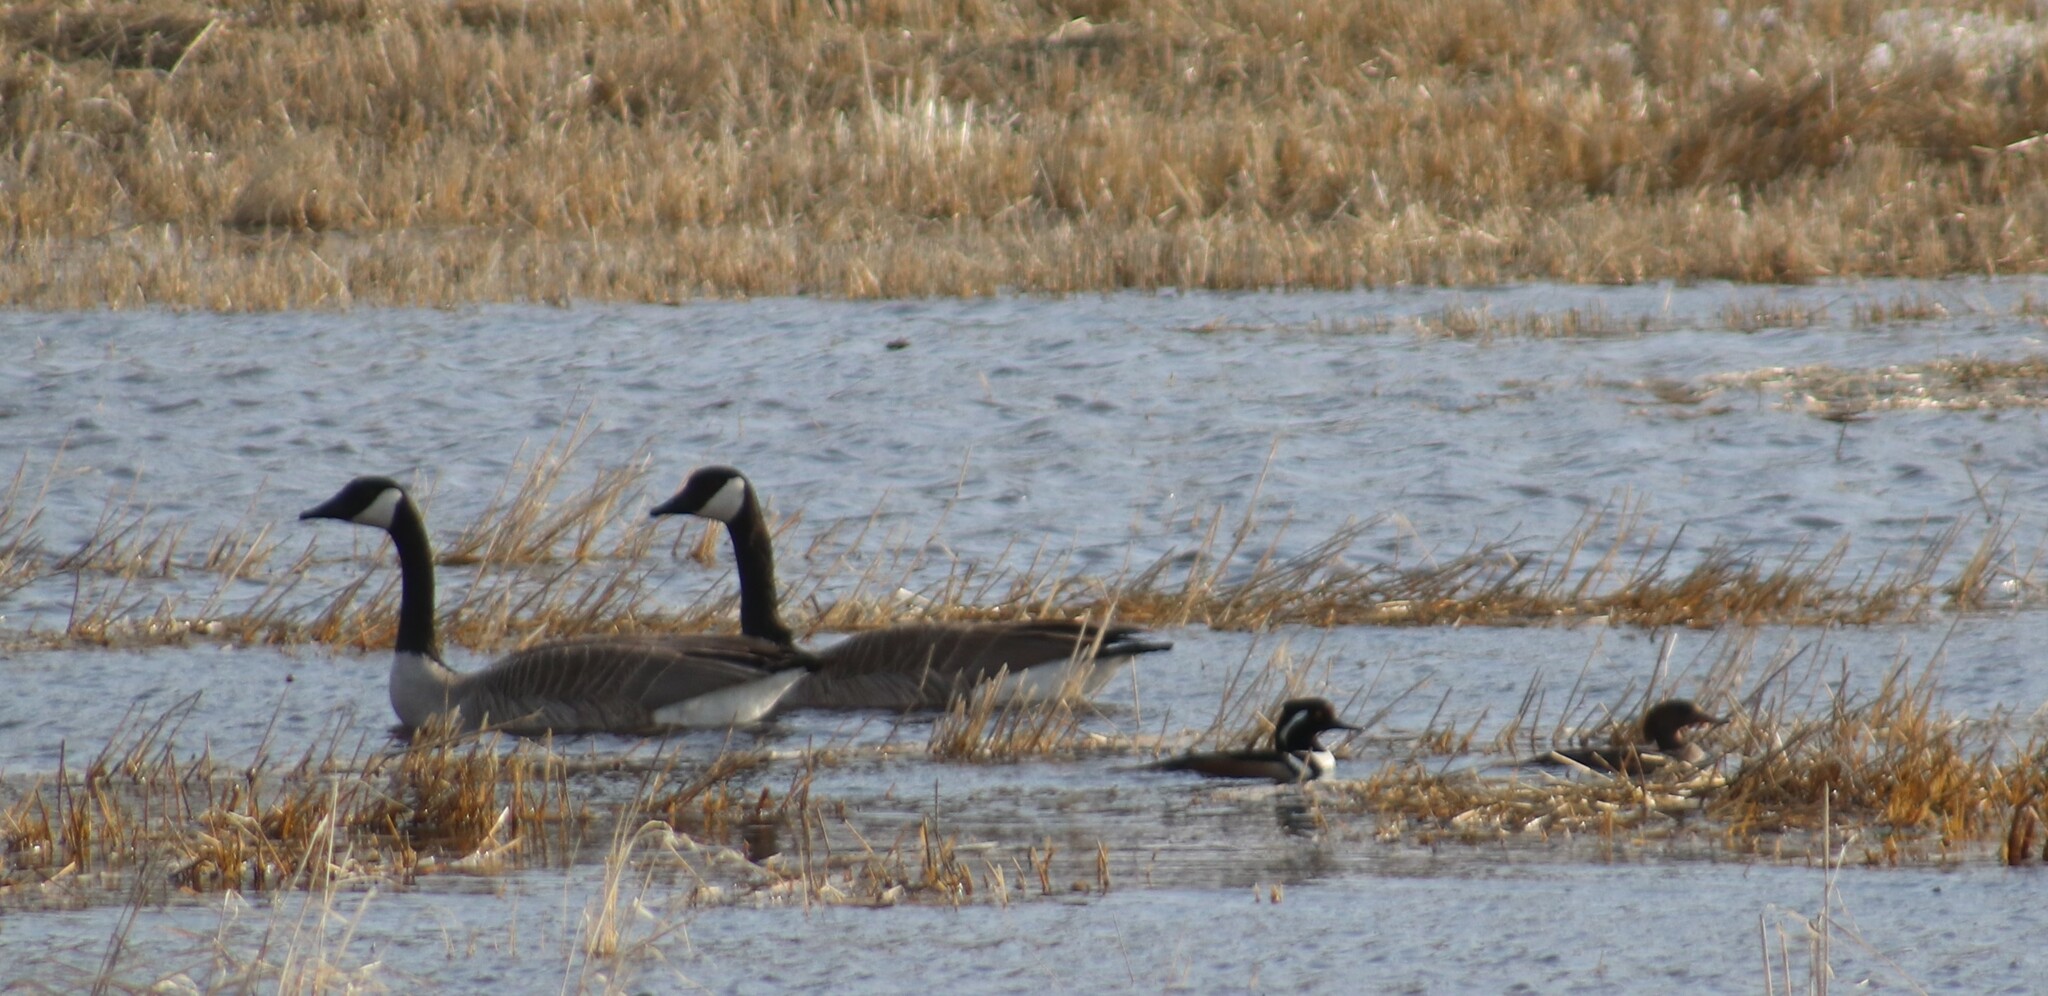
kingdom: Animalia
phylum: Chordata
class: Aves
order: Anseriformes
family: Anatidae
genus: Lophodytes
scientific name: Lophodytes cucullatus
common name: Hooded merganser
